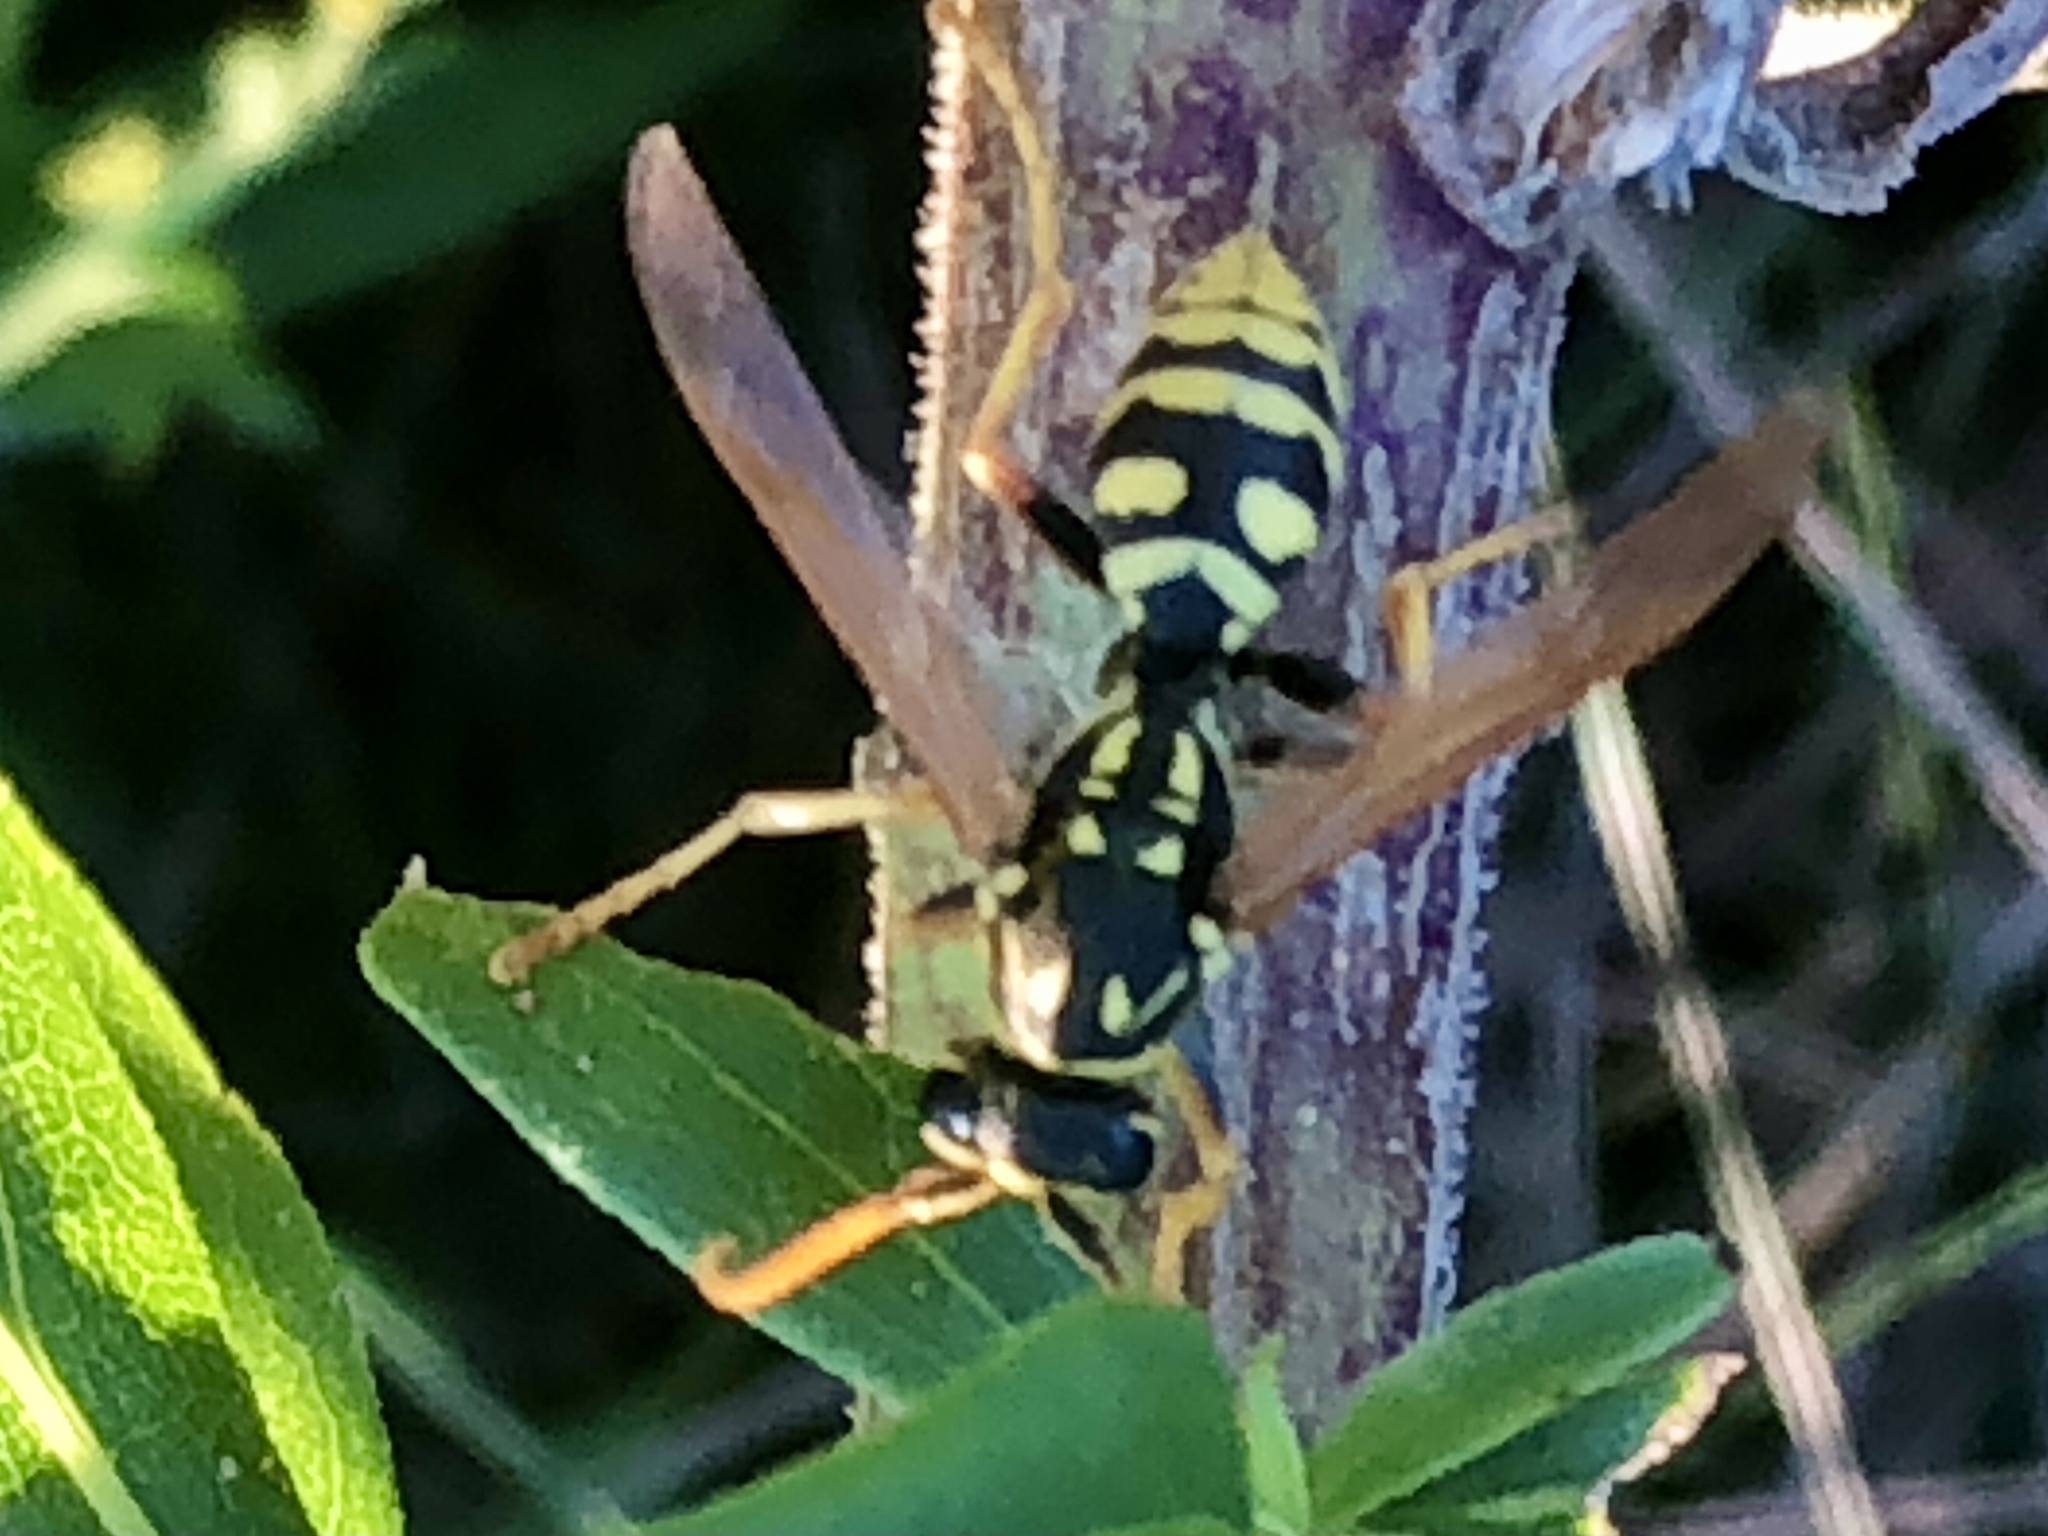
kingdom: Animalia
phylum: Arthropoda
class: Insecta
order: Hymenoptera
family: Eumenidae
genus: Polistes
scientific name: Polistes dominula
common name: Paper wasp
